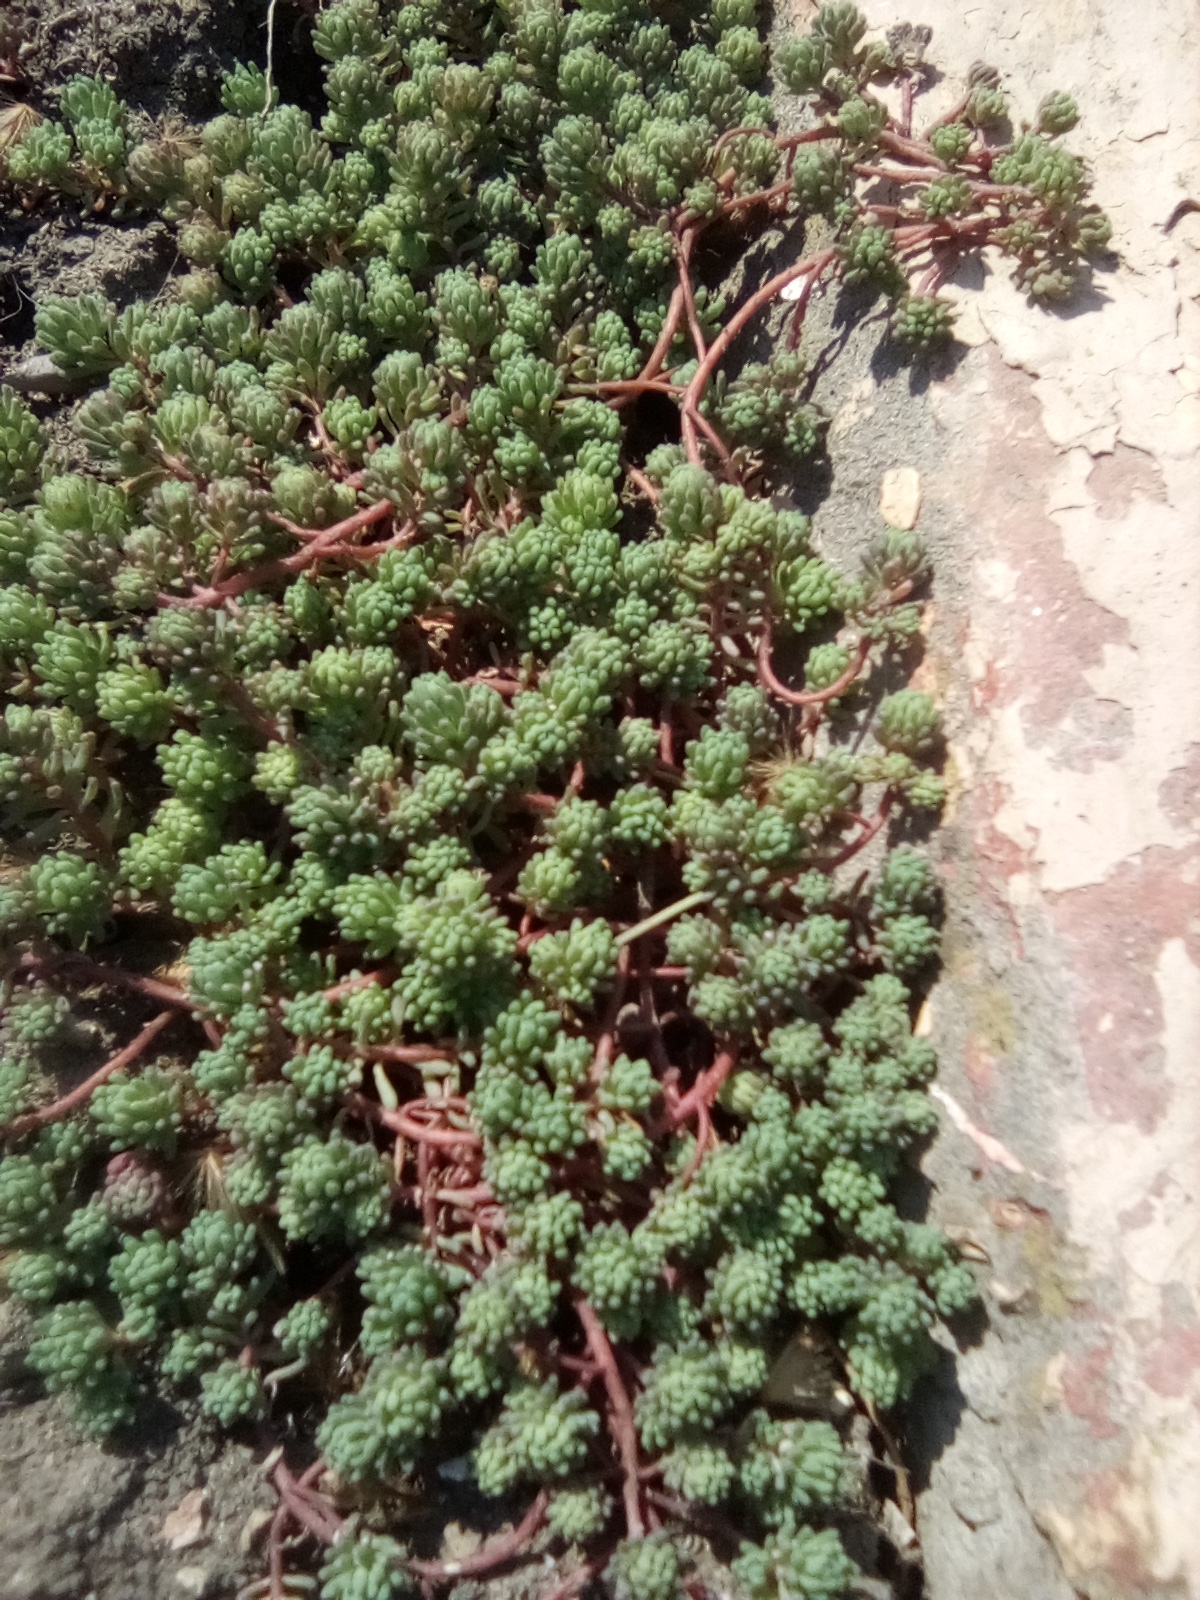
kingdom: Plantae
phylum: Tracheophyta
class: Magnoliopsida
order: Saxifragales
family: Crassulaceae
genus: Sedum
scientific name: Sedum pallidum
